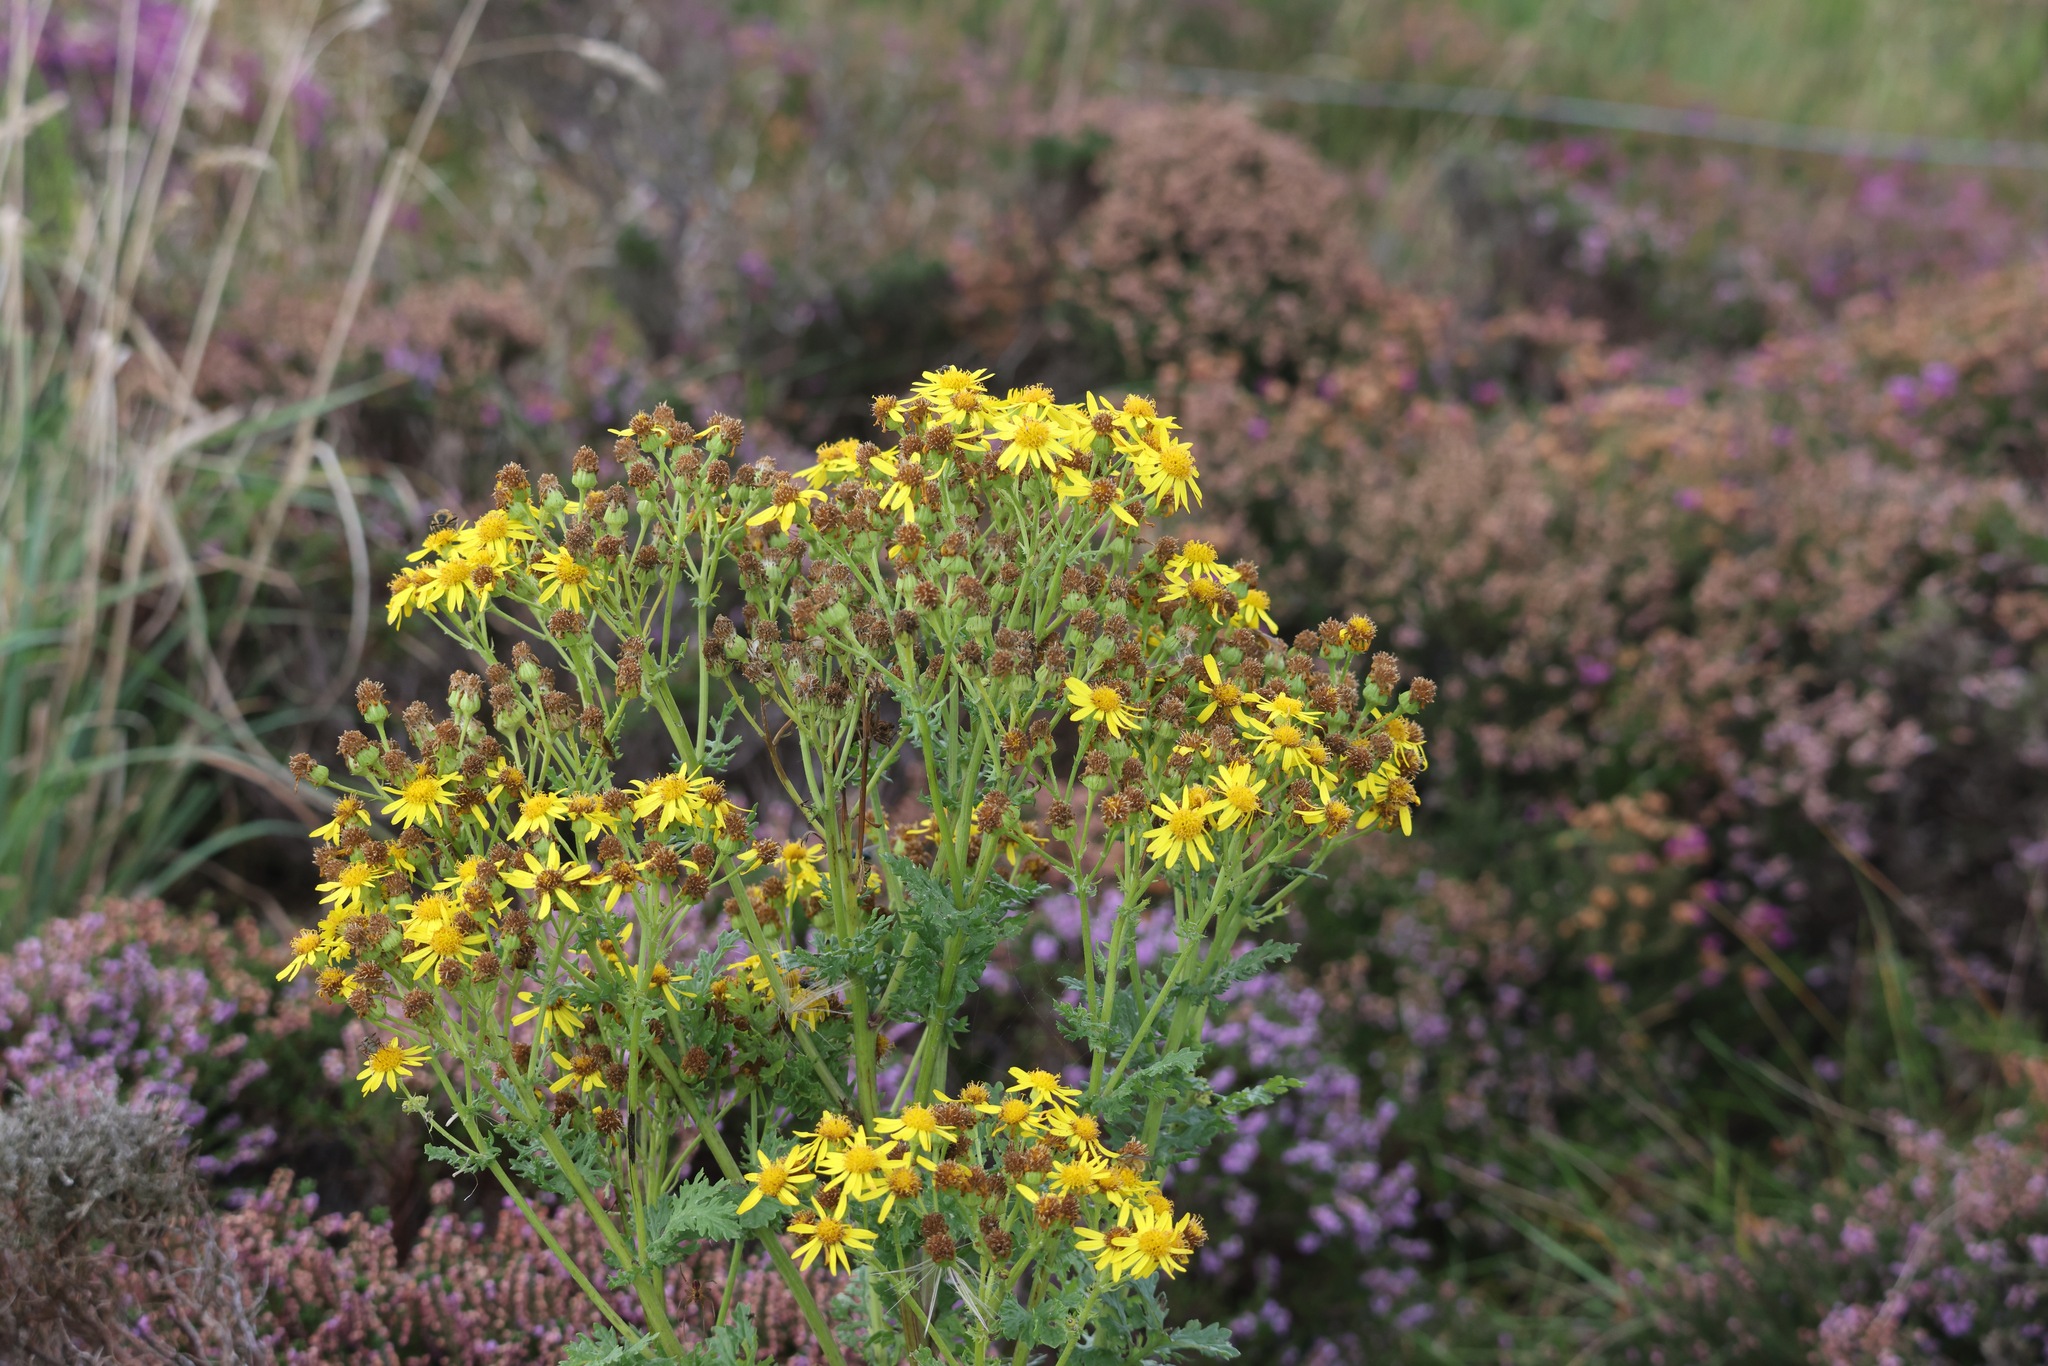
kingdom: Plantae
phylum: Tracheophyta
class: Magnoliopsida
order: Asterales
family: Asteraceae
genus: Jacobaea
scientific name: Jacobaea vulgaris
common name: Stinking willie
